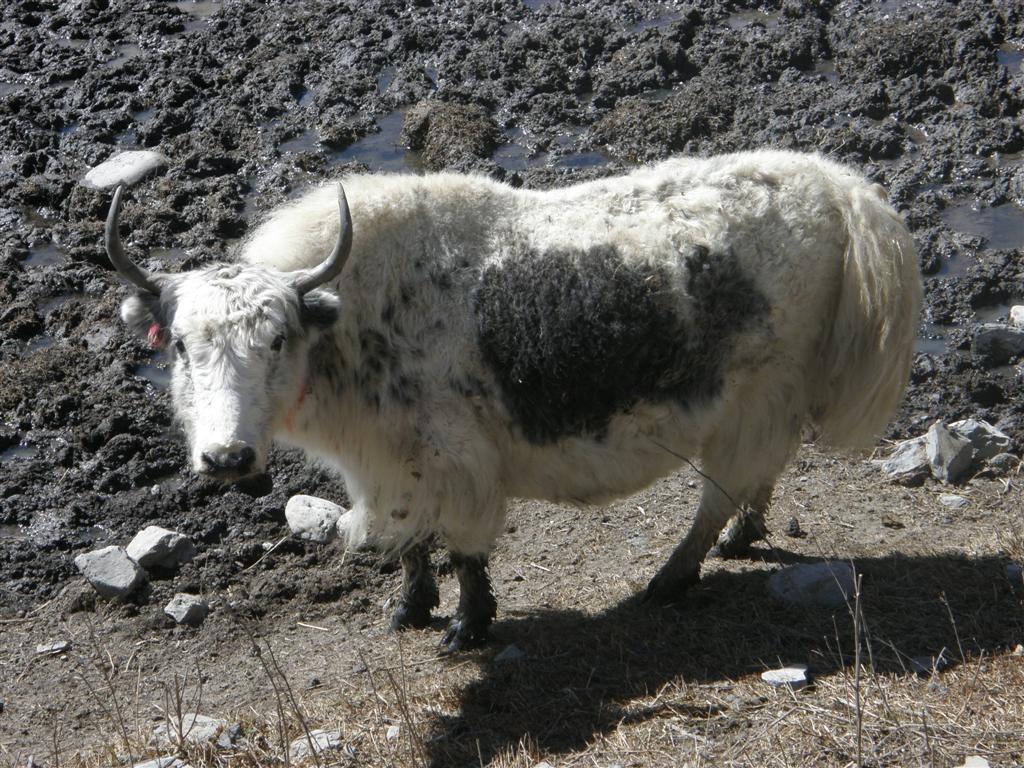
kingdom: Animalia
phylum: Chordata
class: Mammalia
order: Artiodactyla
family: Bovidae
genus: Bos
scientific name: Bos grunniens
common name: Yak
